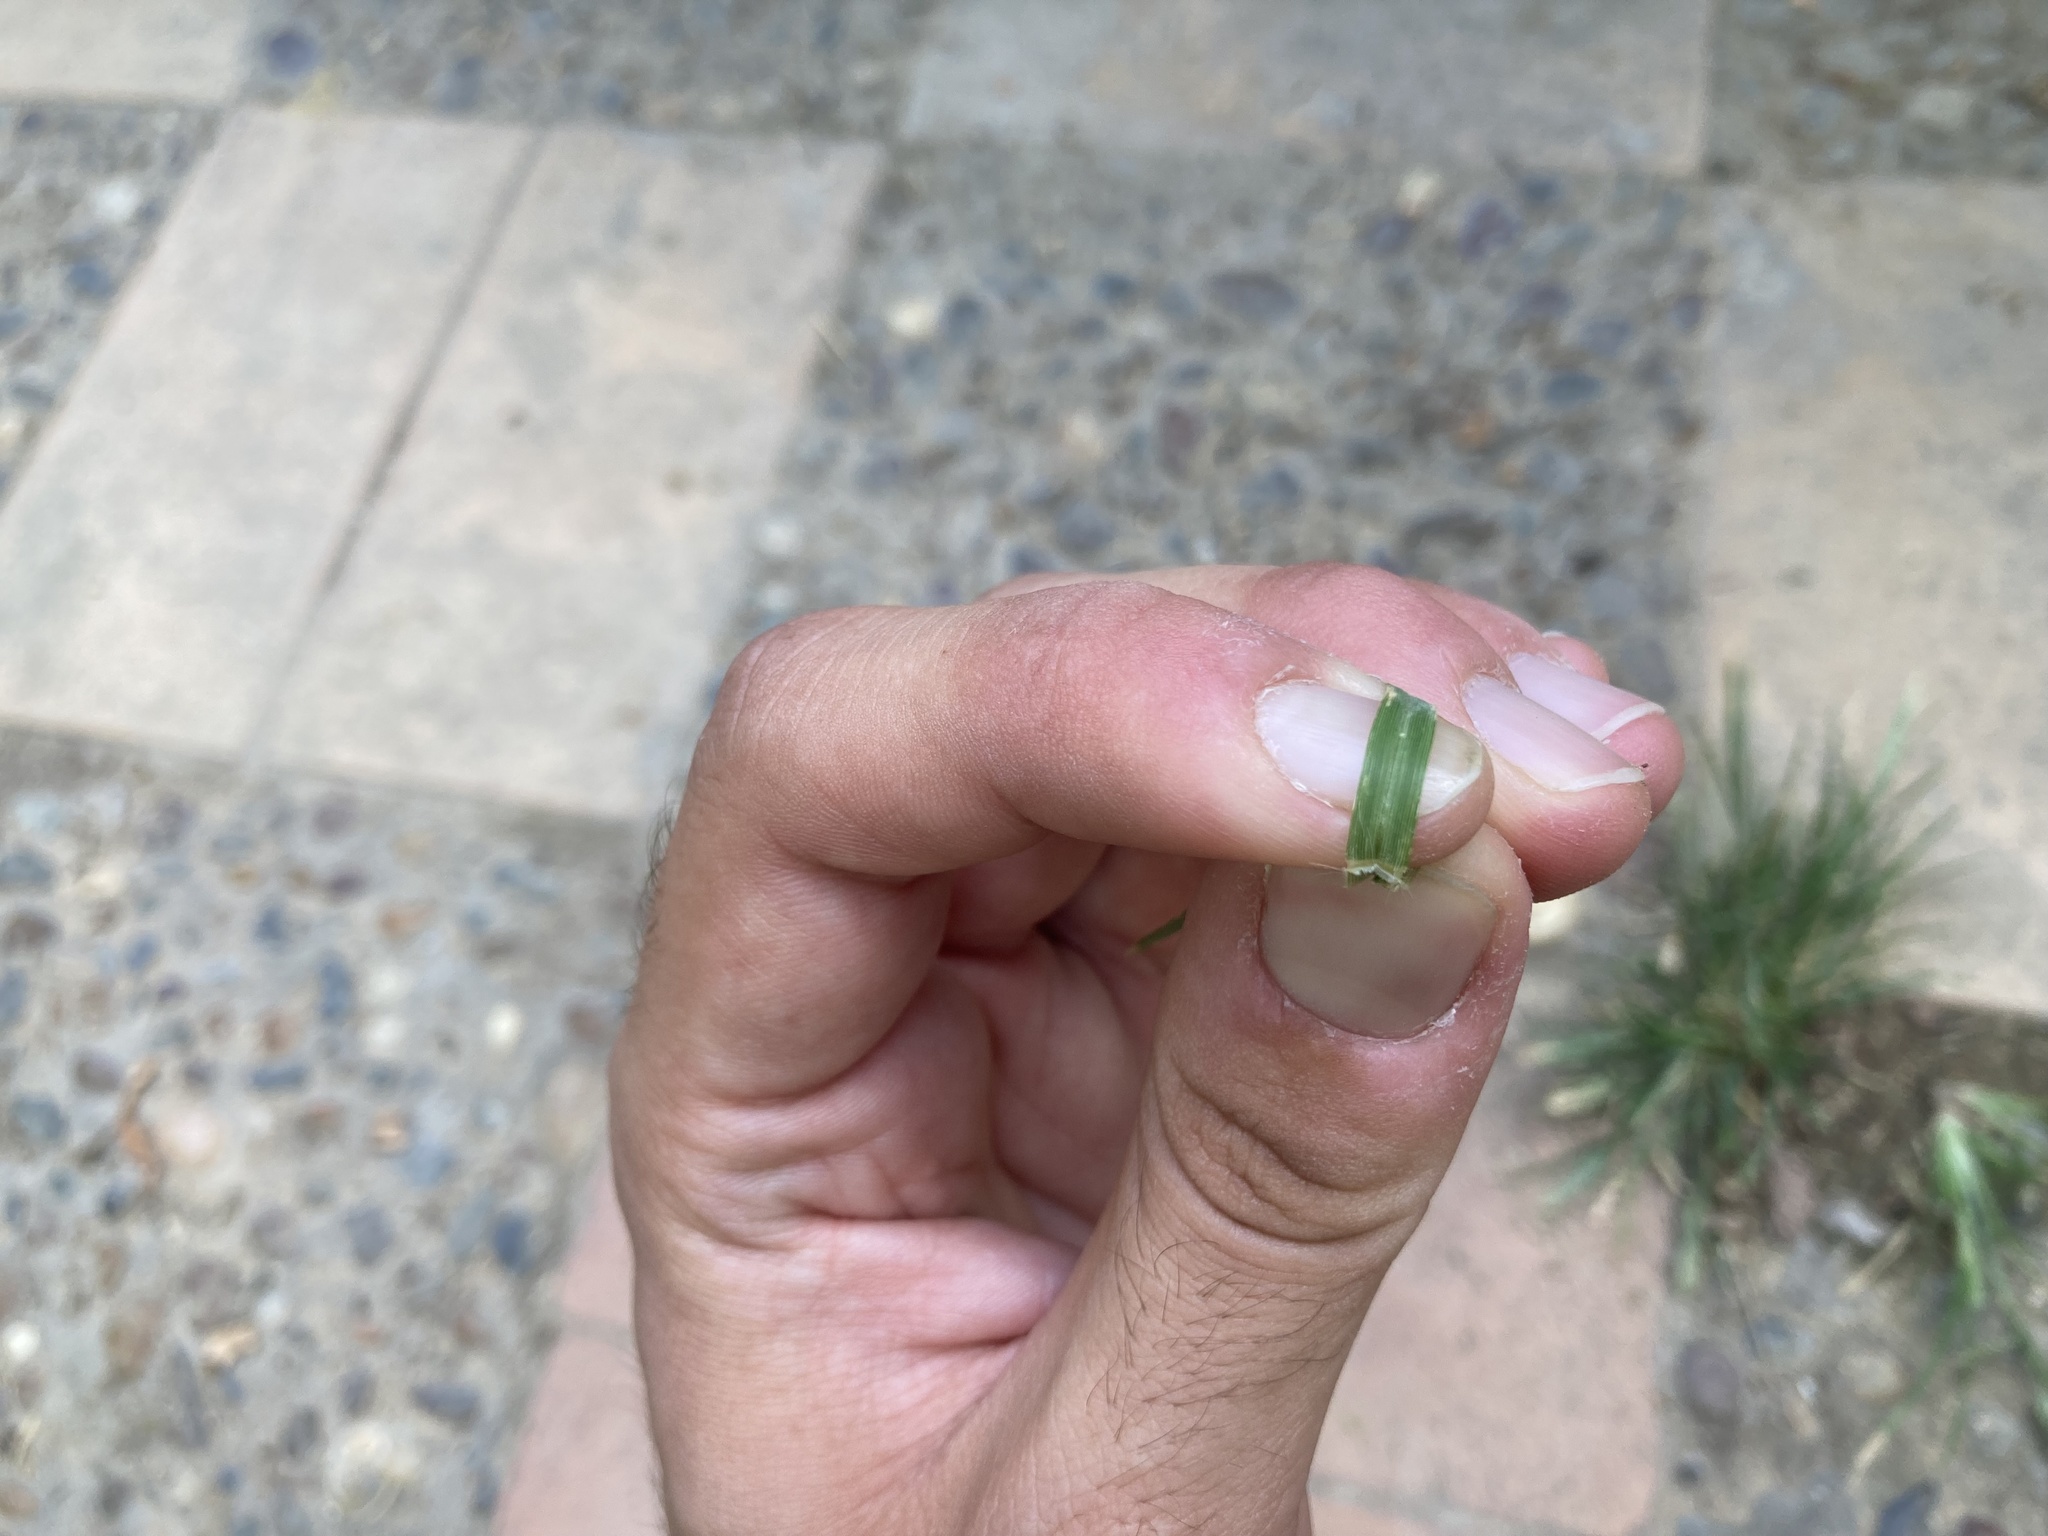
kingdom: Plantae
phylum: Tracheophyta
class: Liliopsida
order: Poales
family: Poaceae
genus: Eleusine
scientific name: Eleusine indica
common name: Yard-grass
